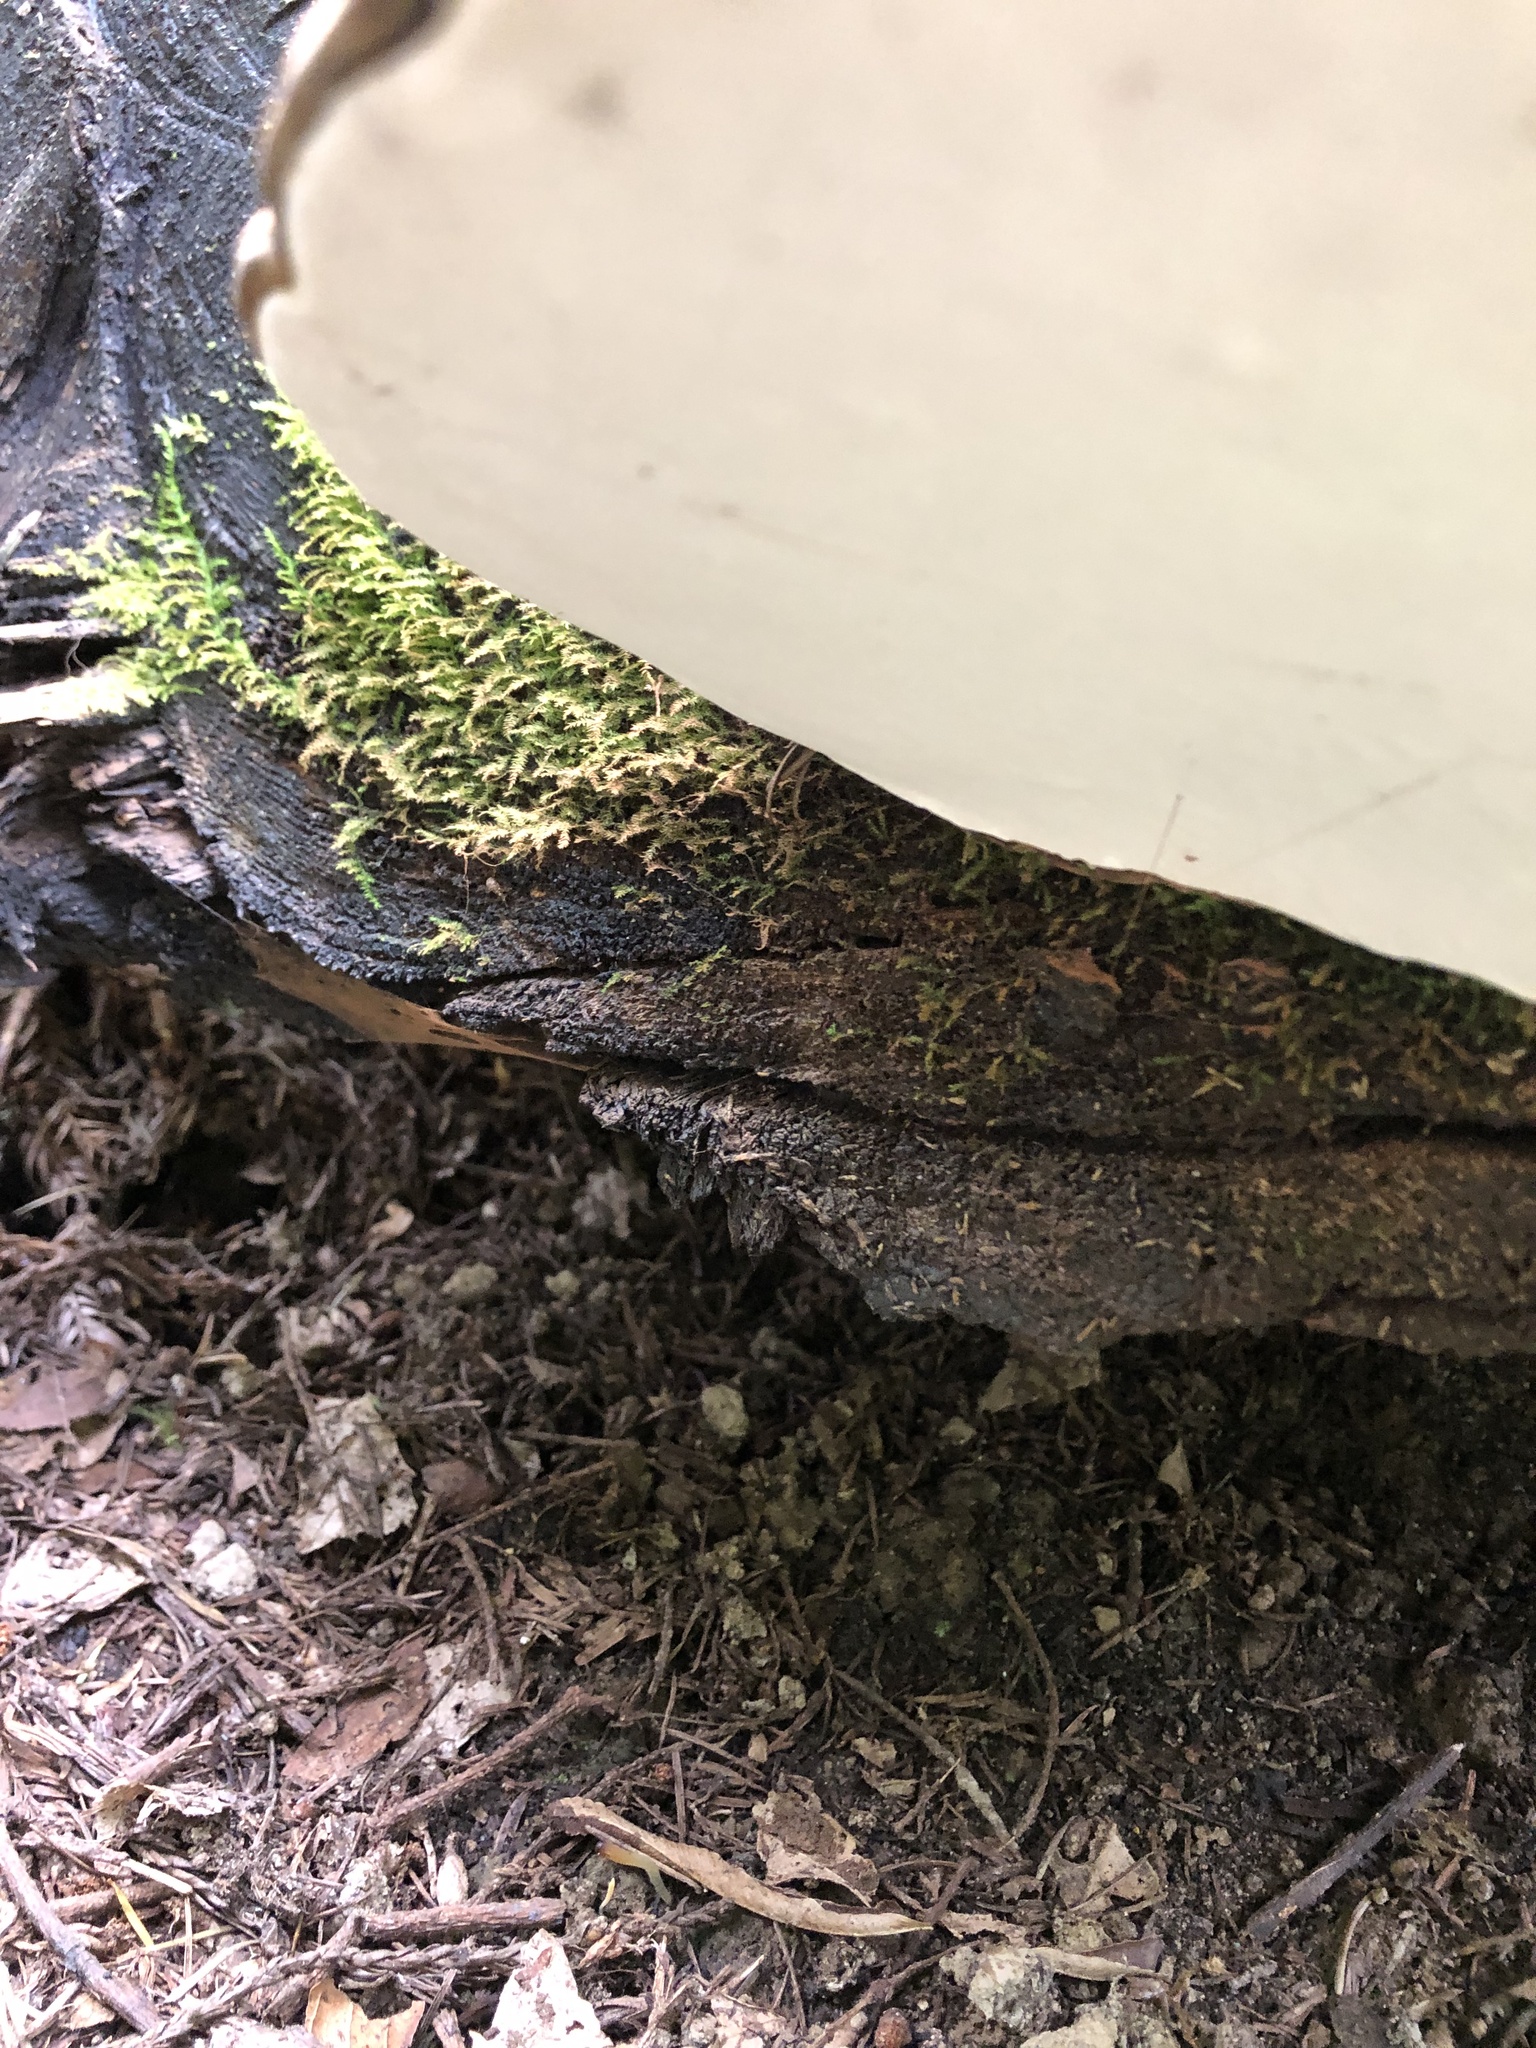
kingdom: Fungi
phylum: Basidiomycota
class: Agaricomycetes
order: Polyporales
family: Polyporaceae
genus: Ganoderma
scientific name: Ganoderma applanatum
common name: Artist's bracket
